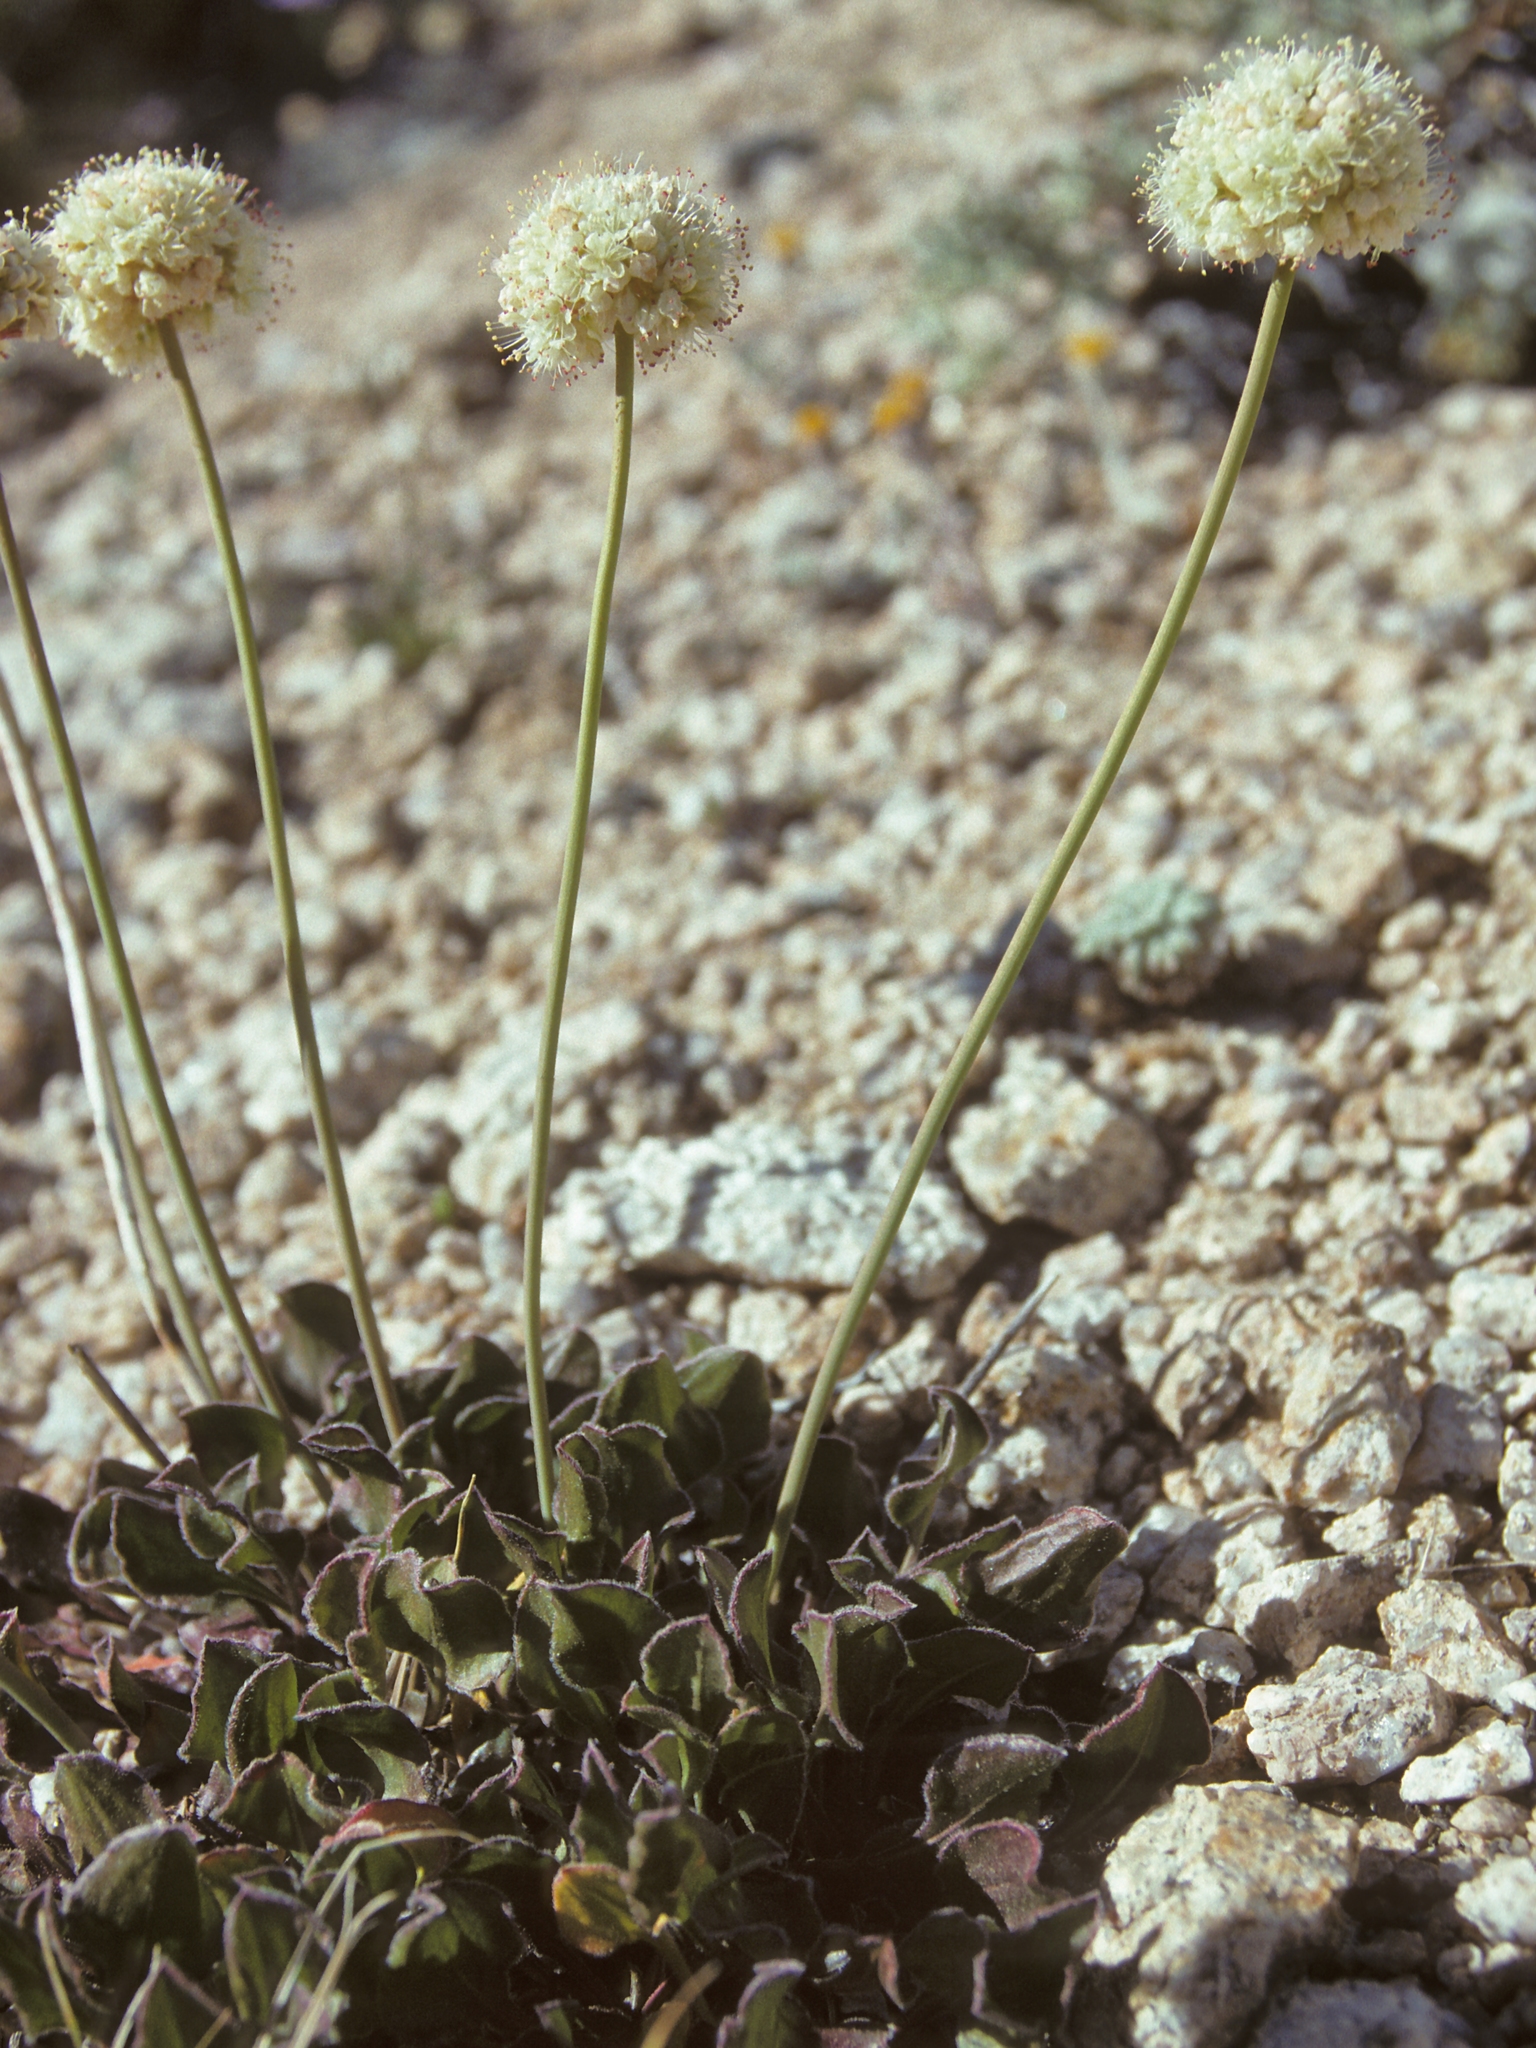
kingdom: Plantae
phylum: Tracheophyta
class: Magnoliopsida
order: Caryophyllales
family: Polygonaceae
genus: Eriogonum
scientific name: Eriogonum latens
